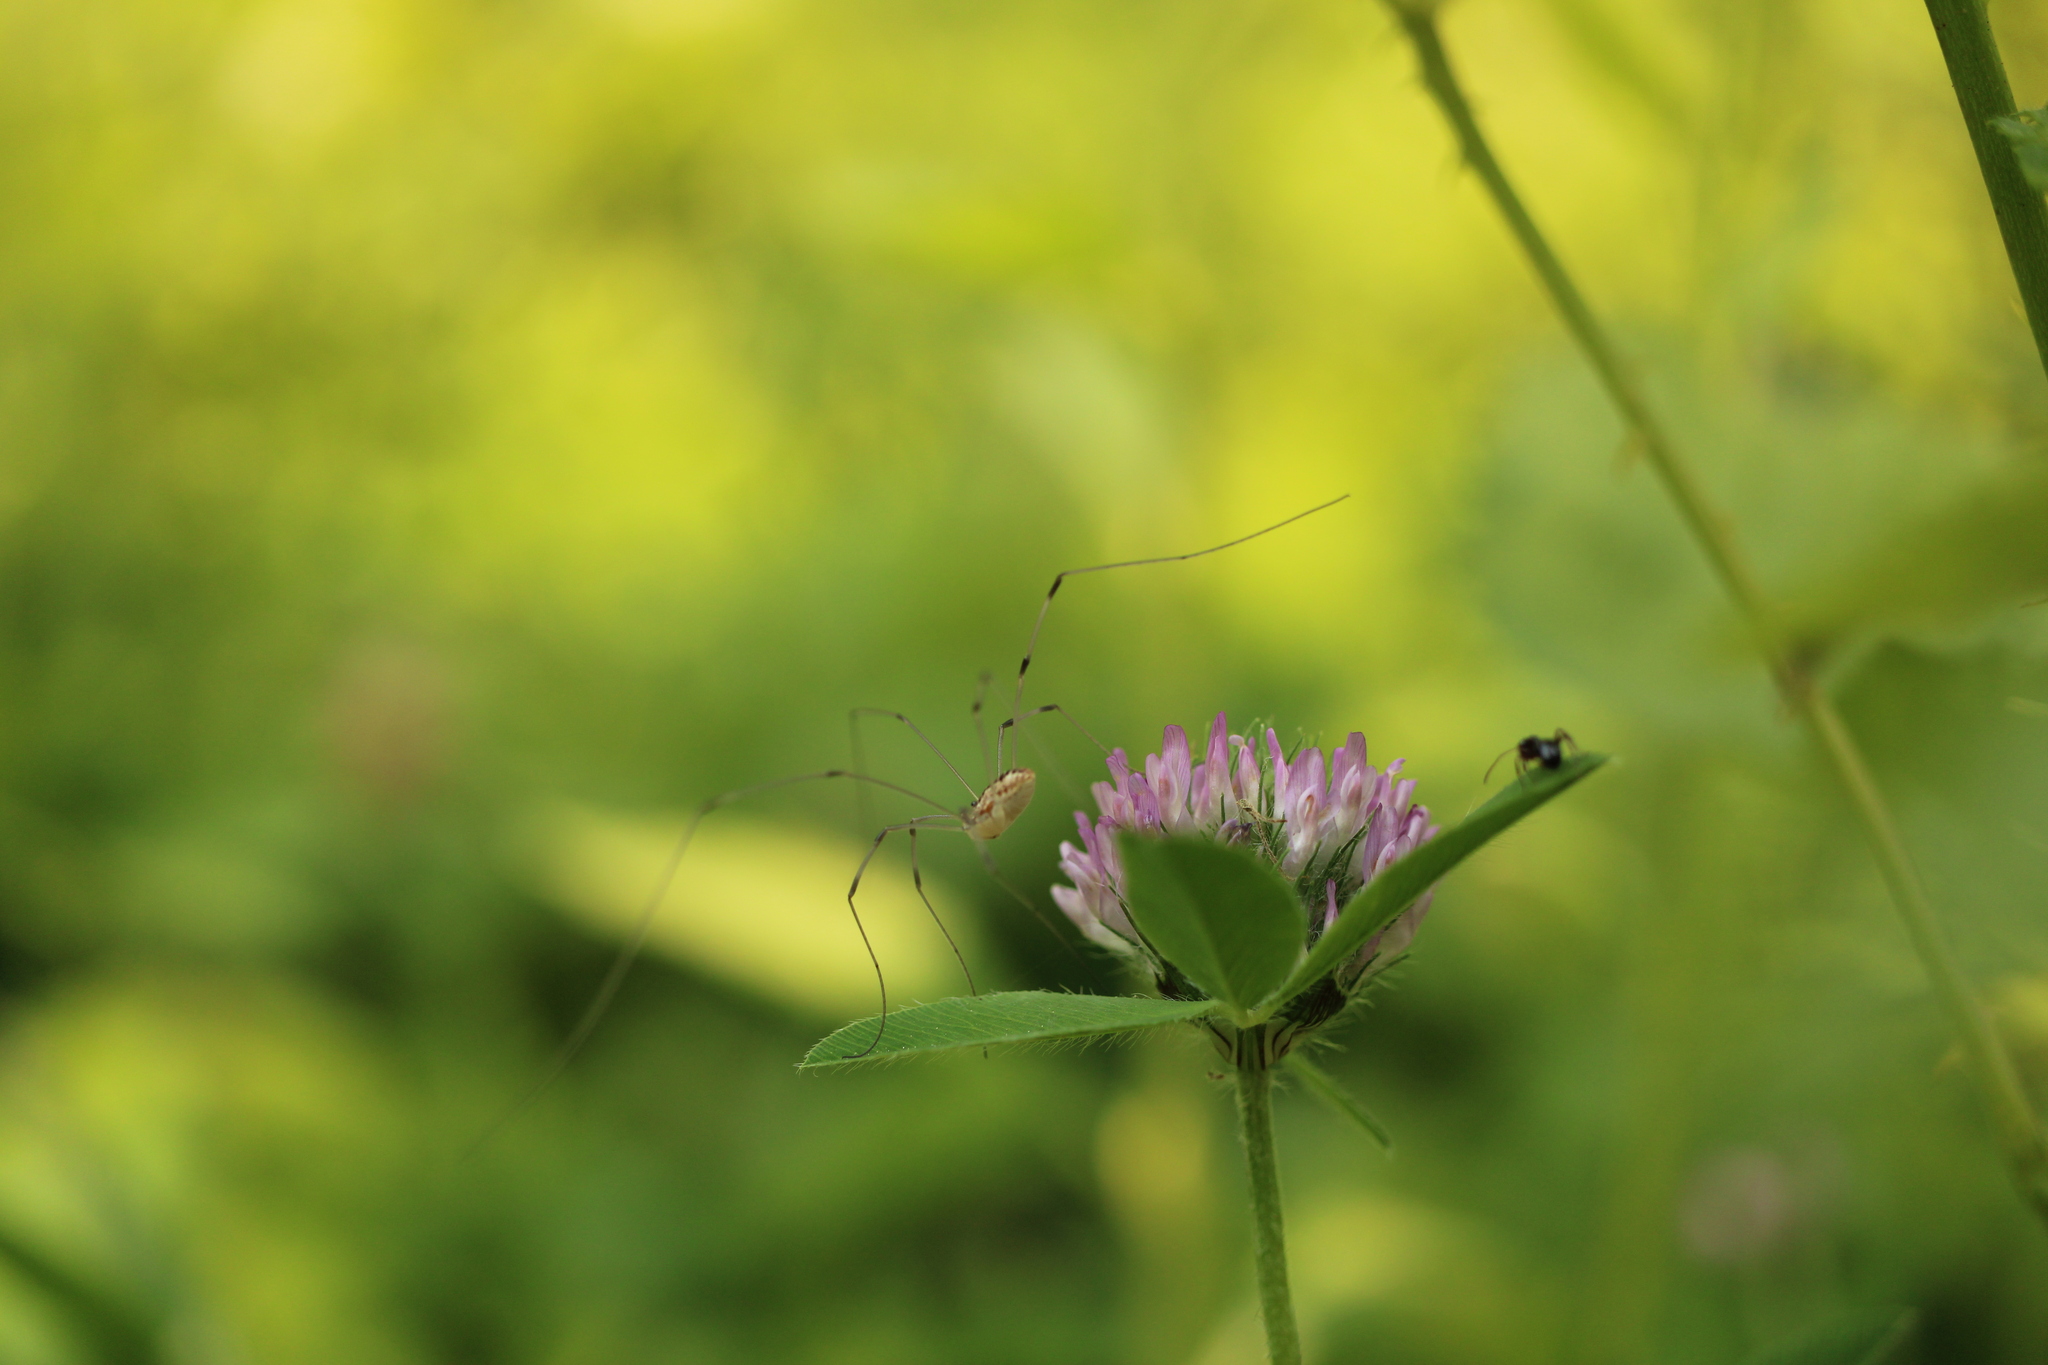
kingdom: Plantae
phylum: Tracheophyta
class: Magnoliopsida
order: Fabales
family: Fabaceae
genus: Trifolium
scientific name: Trifolium pratense
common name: Red clover
